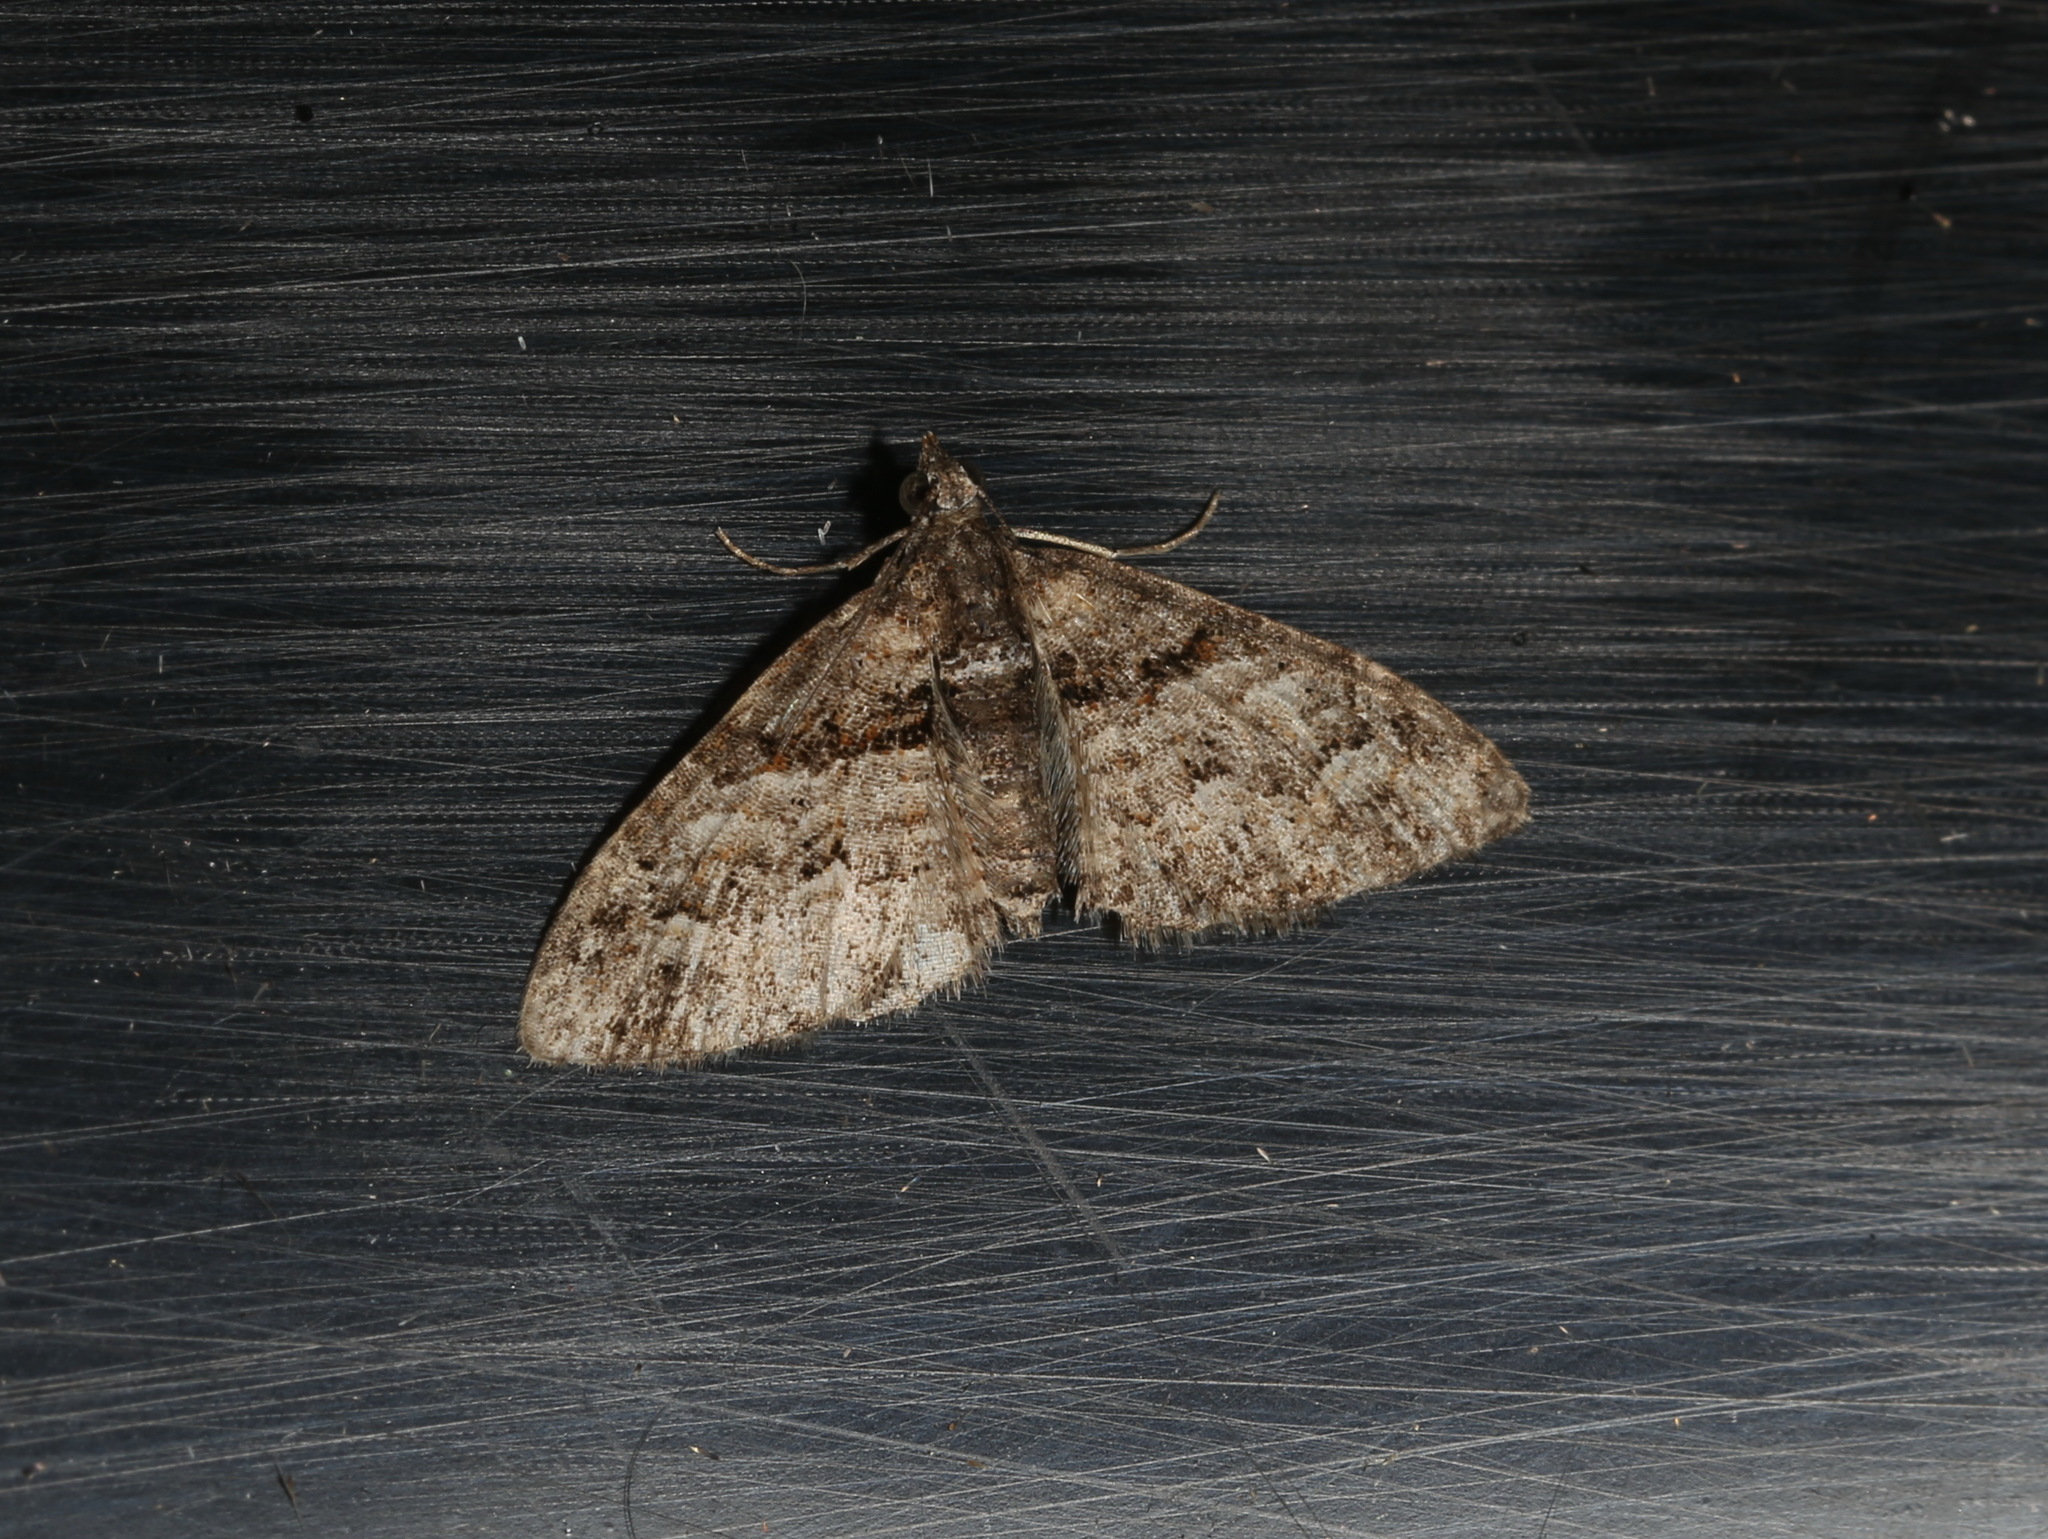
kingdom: Animalia
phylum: Arthropoda
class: Insecta
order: Lepidoptera
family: Geometridae
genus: Phrissogonus
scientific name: Phrissogonus laticostata
